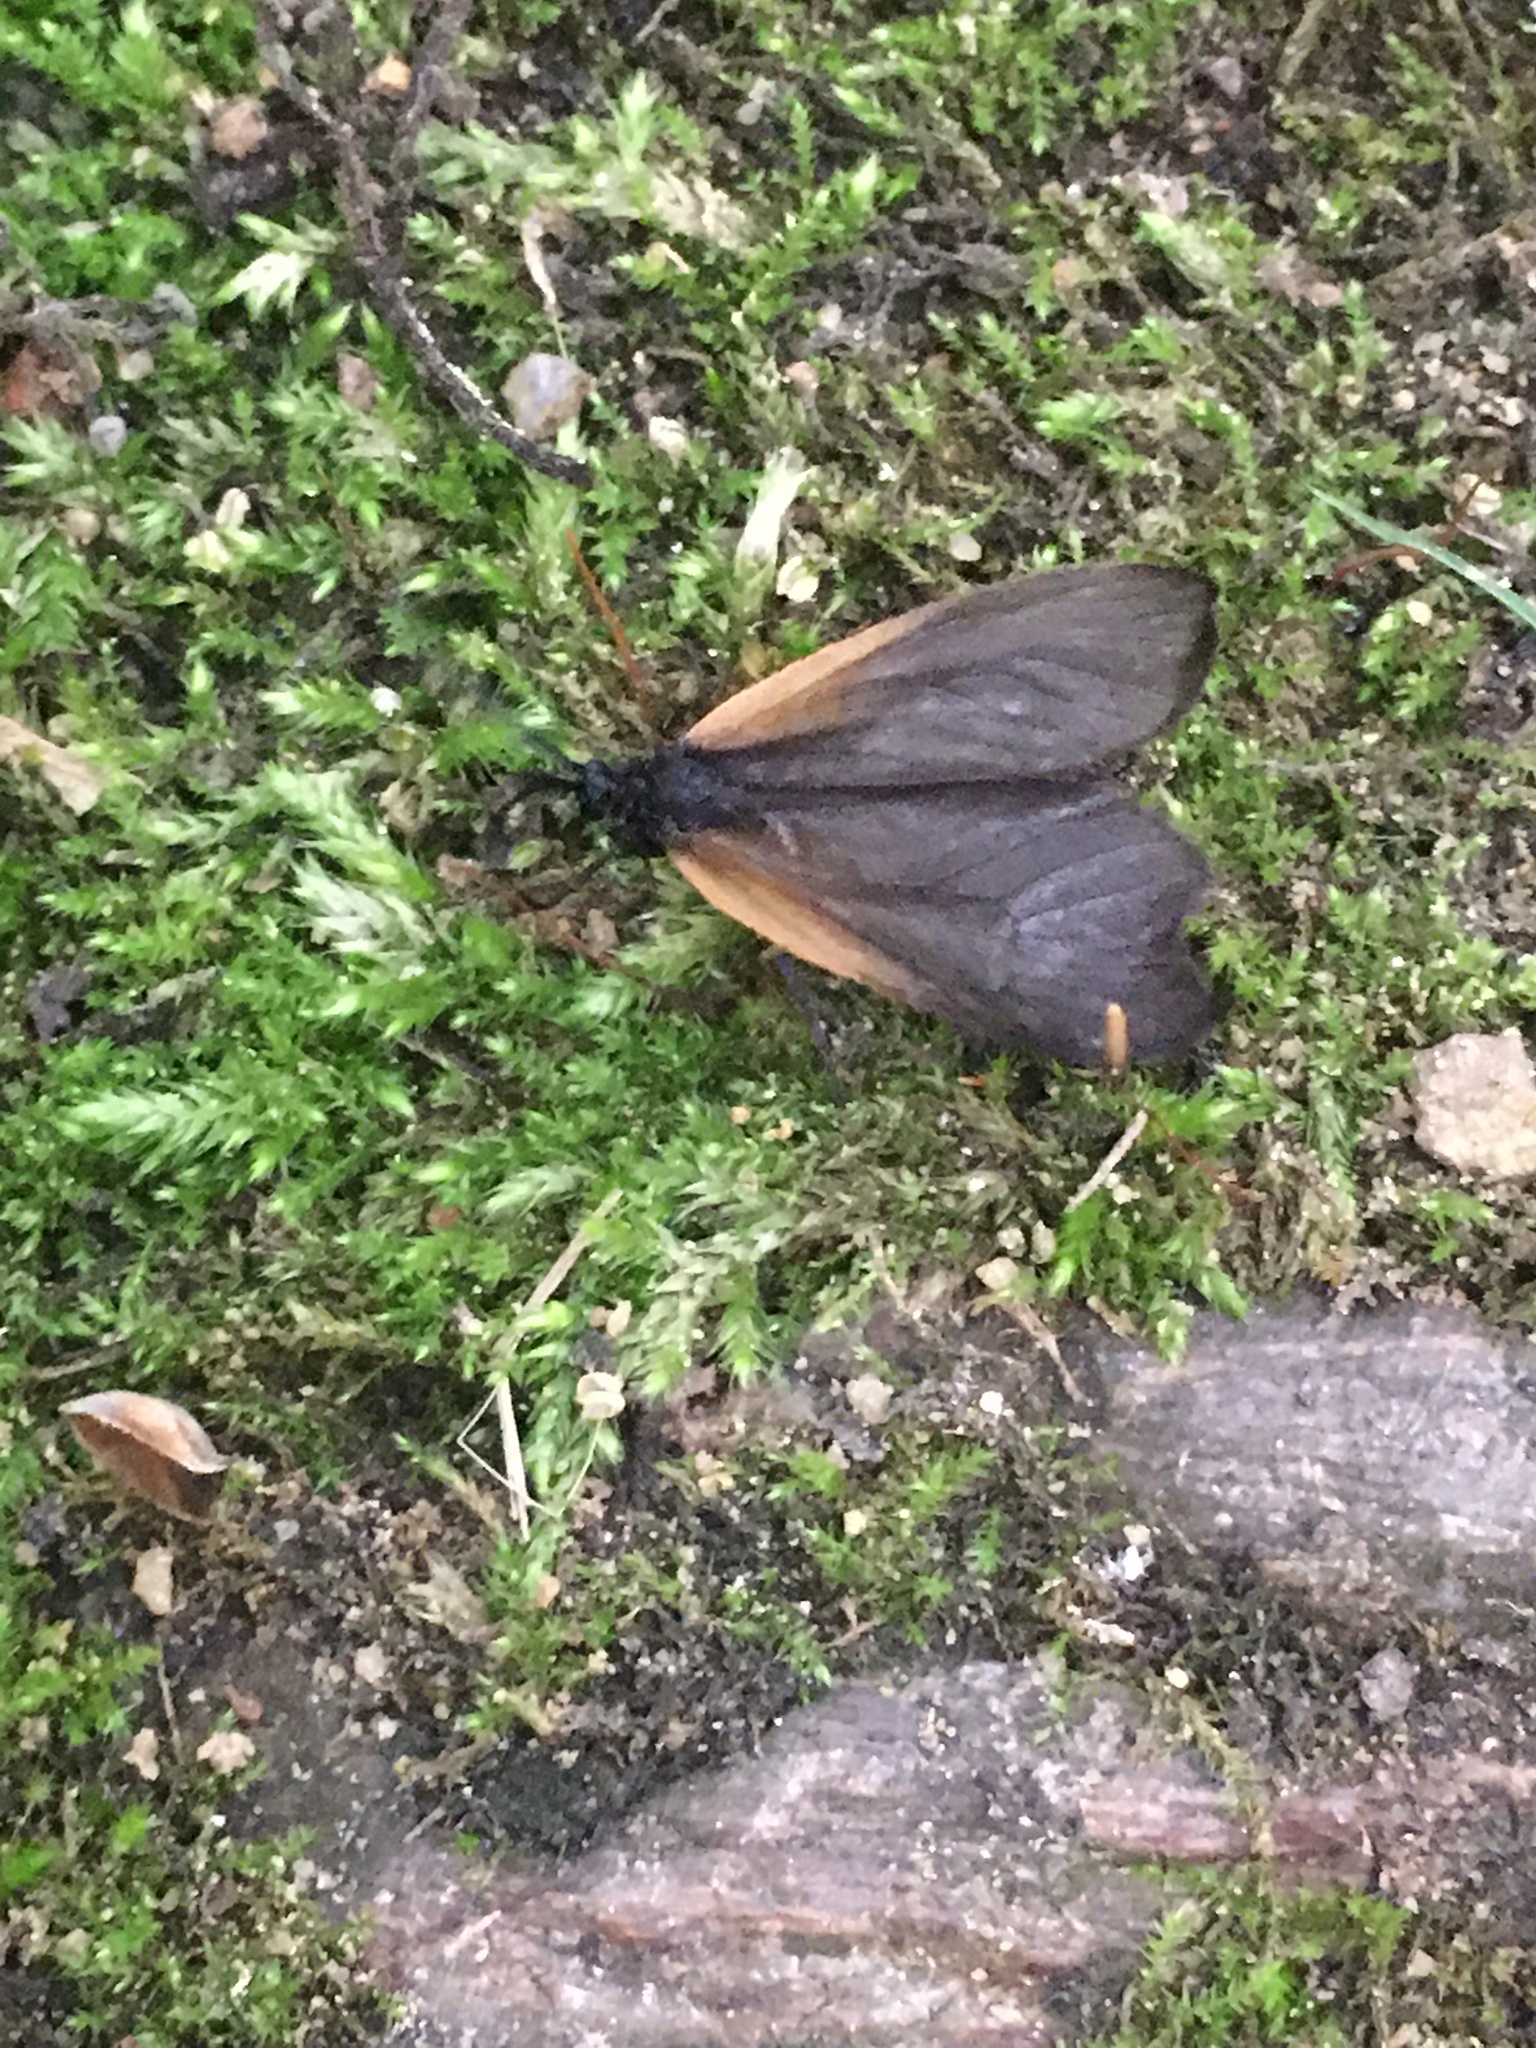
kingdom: Animalia
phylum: Arthropoda
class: Insecta
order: Lepidoptera
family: Zygaenidae
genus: Malthaca
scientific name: Malthaca dimidiata
